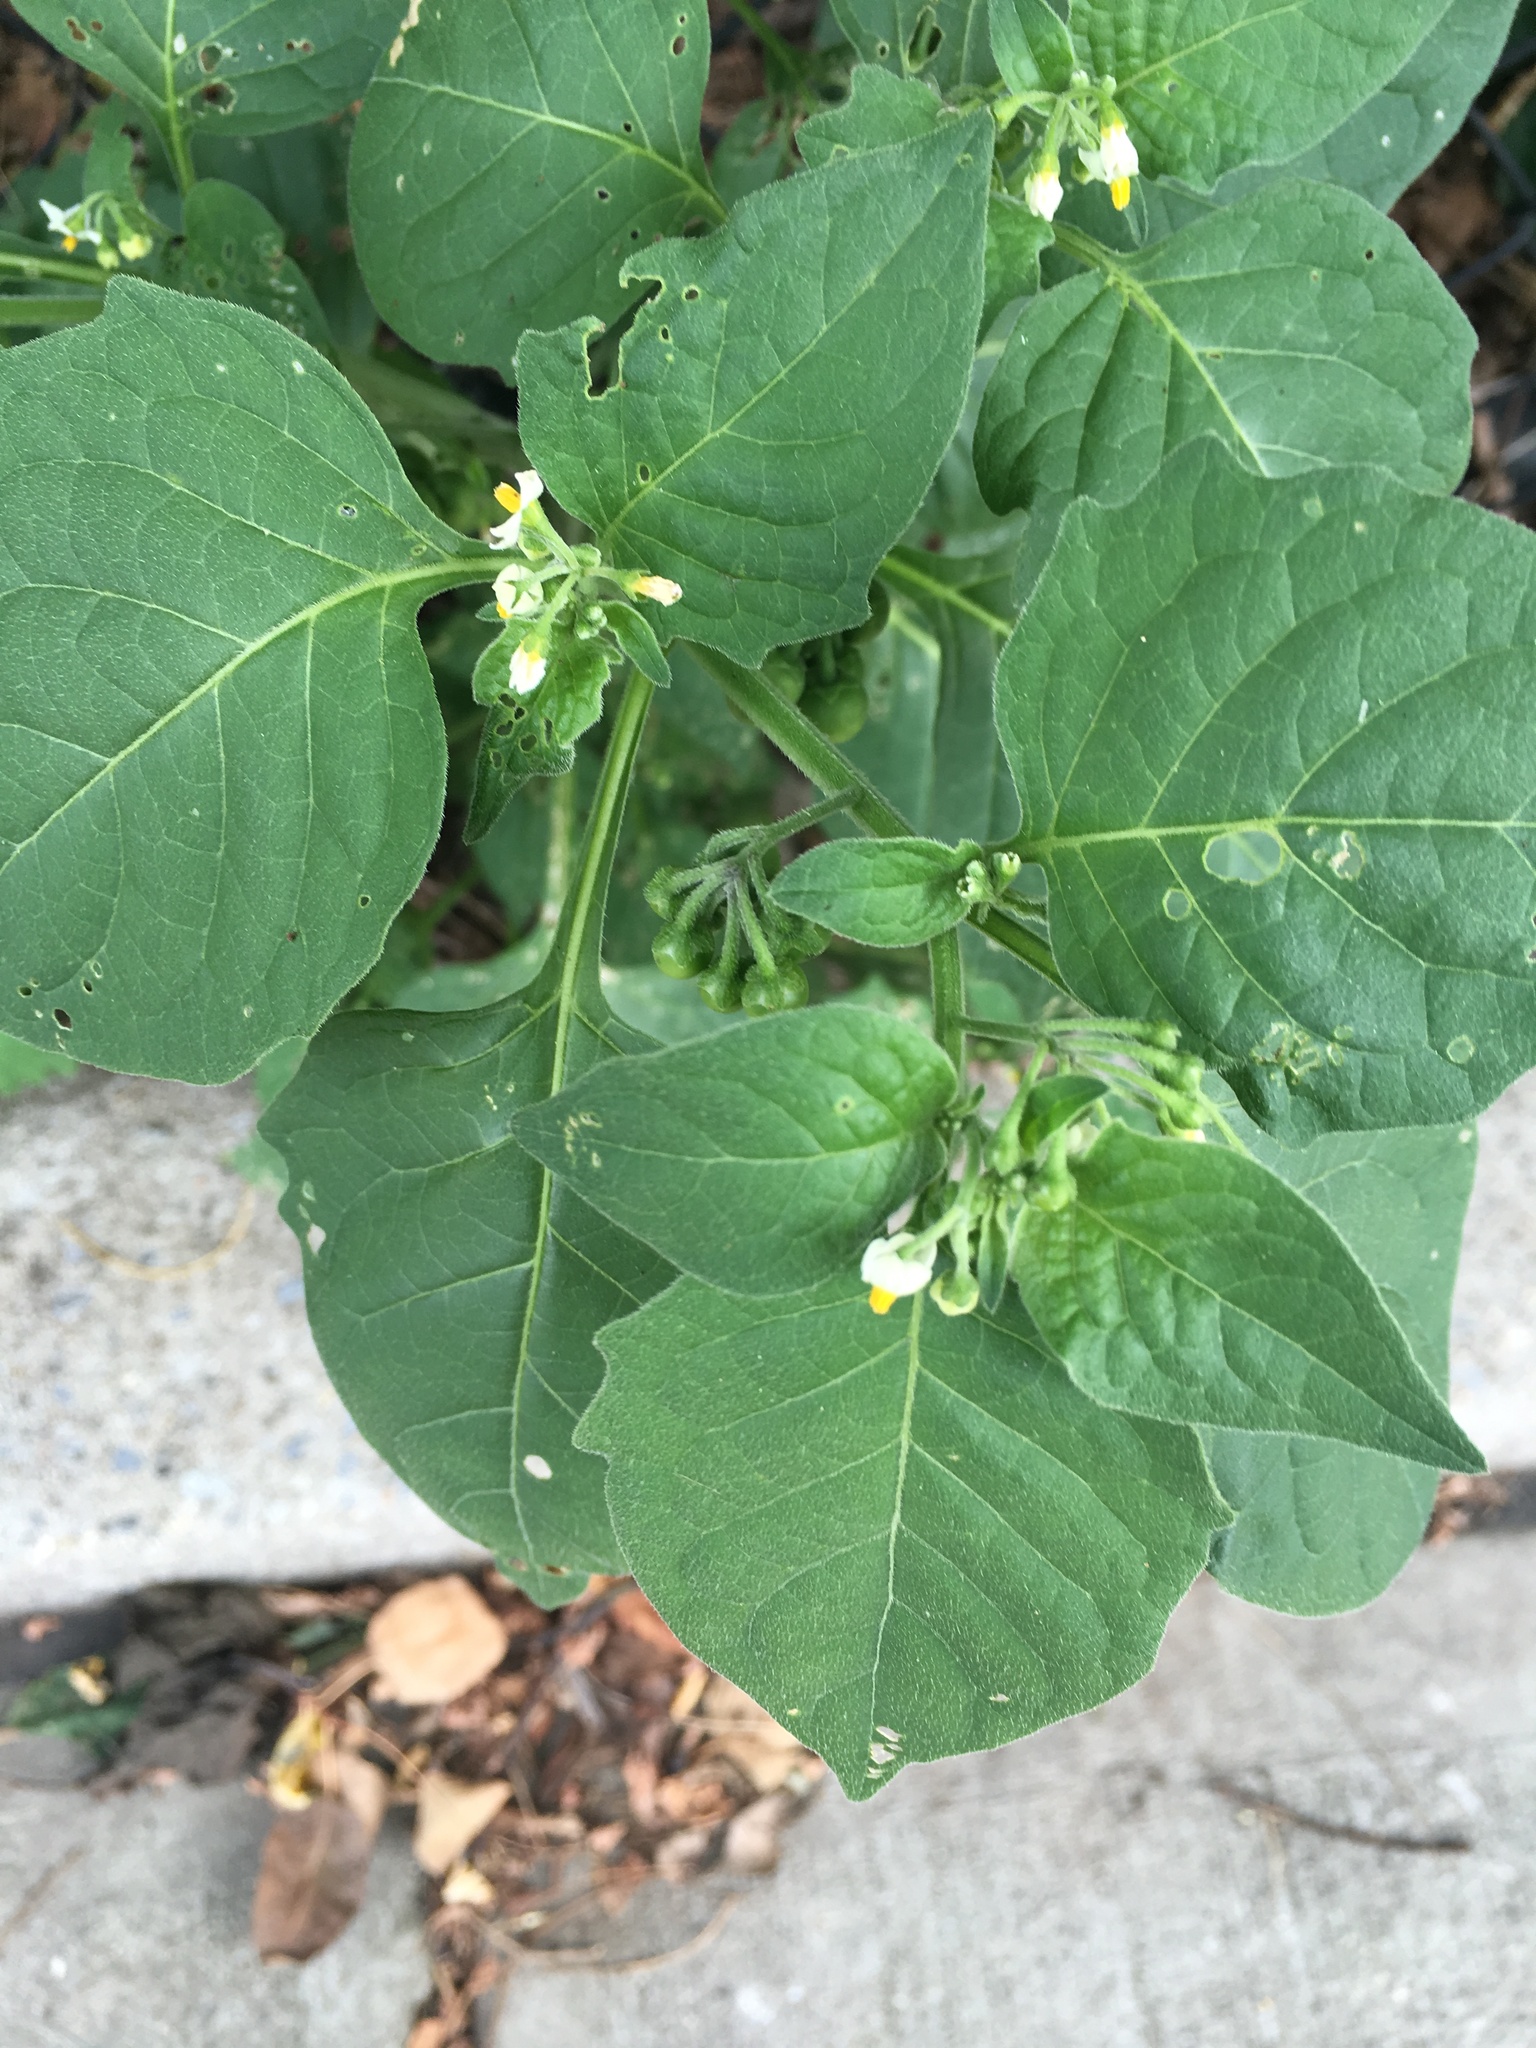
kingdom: Plantae
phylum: Tracheophyta
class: Magnoliopsida
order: Solanales
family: Solanaceae
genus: Solanum
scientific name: Solanum nigrum
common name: Black nightshade
